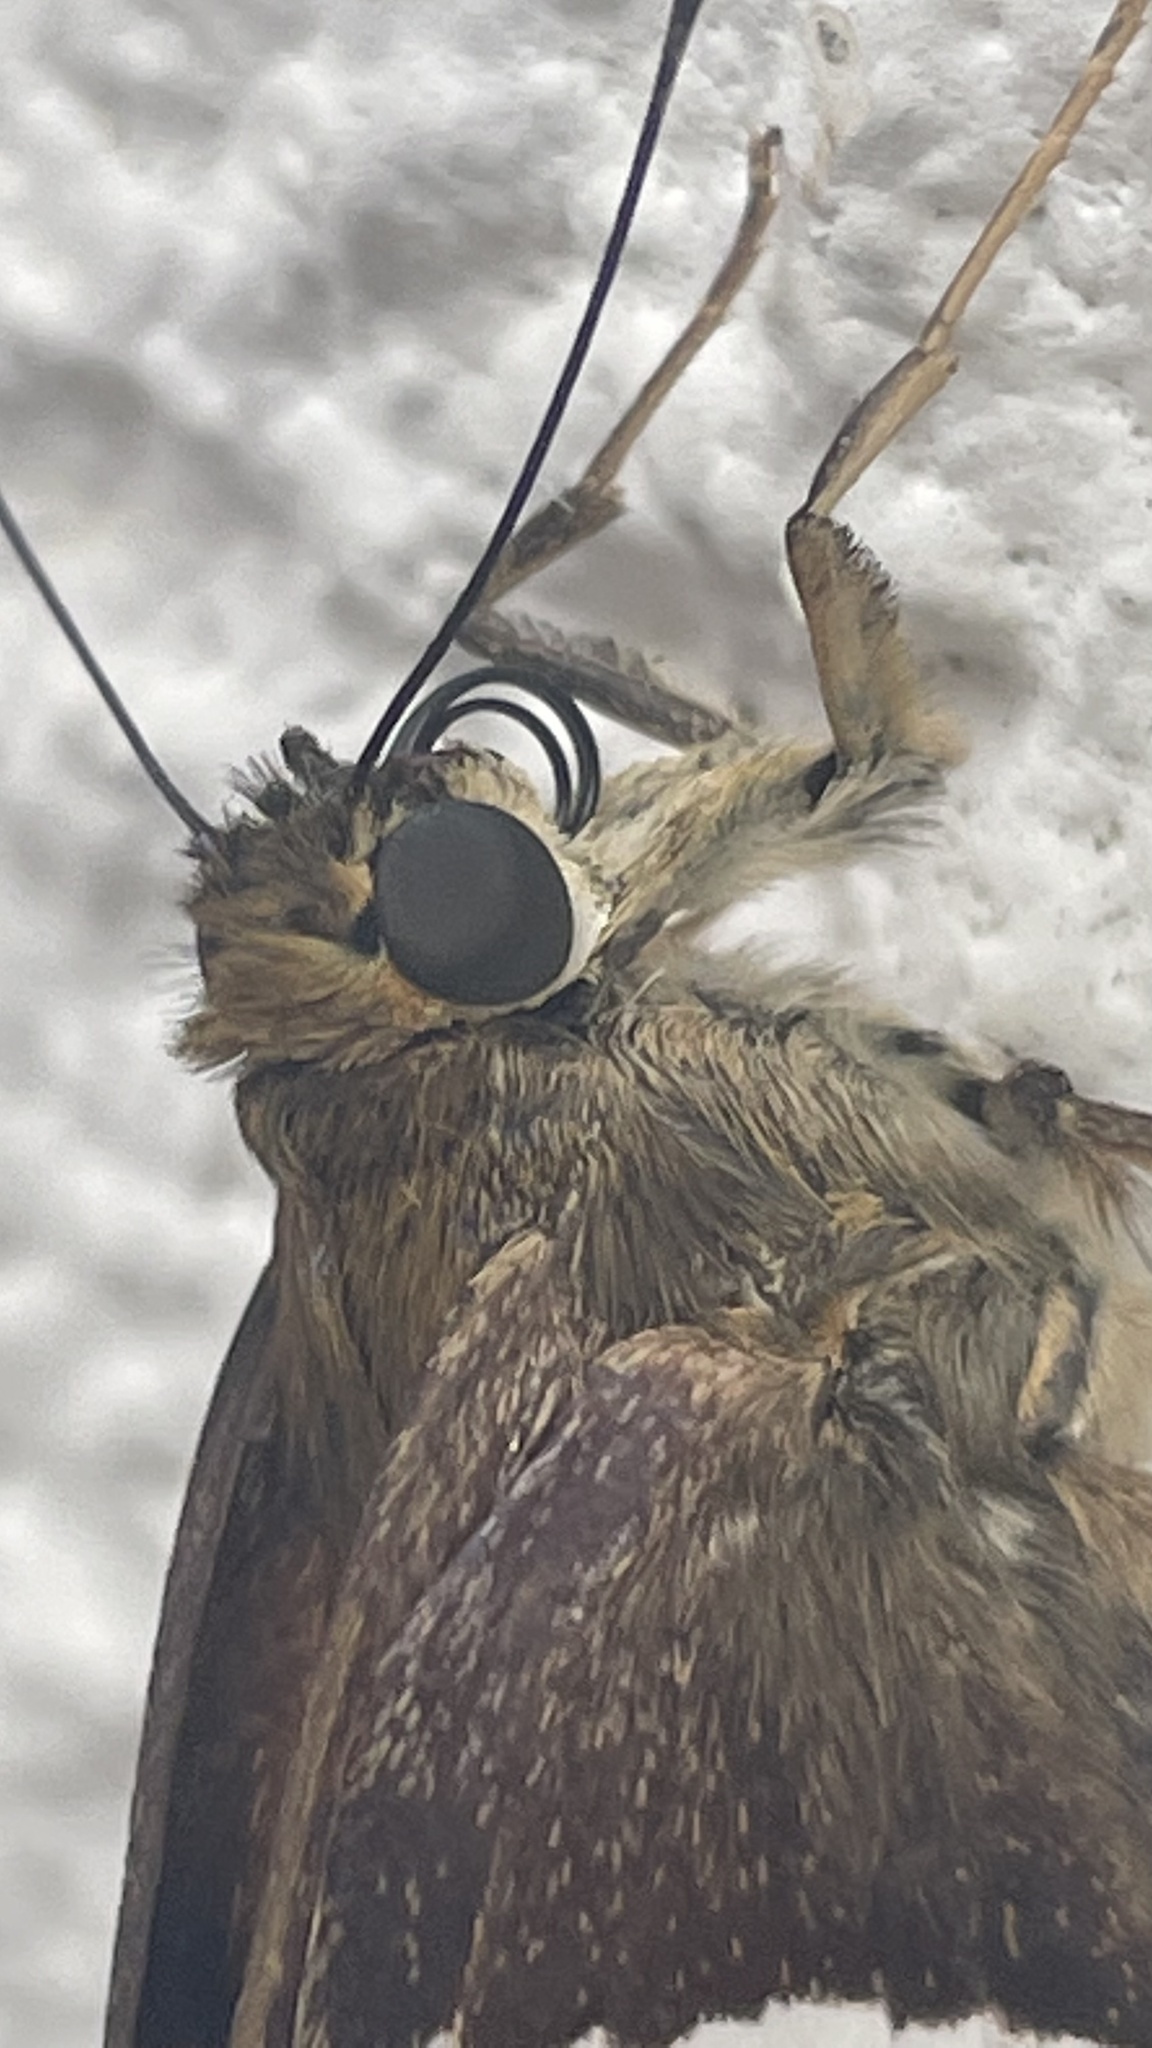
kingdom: Animalia
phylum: Arthropoda
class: Insecta
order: Lepidoptera
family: Hesperiidae
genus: Aguna
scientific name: Aguna asander
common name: Gold-spotted aguna
